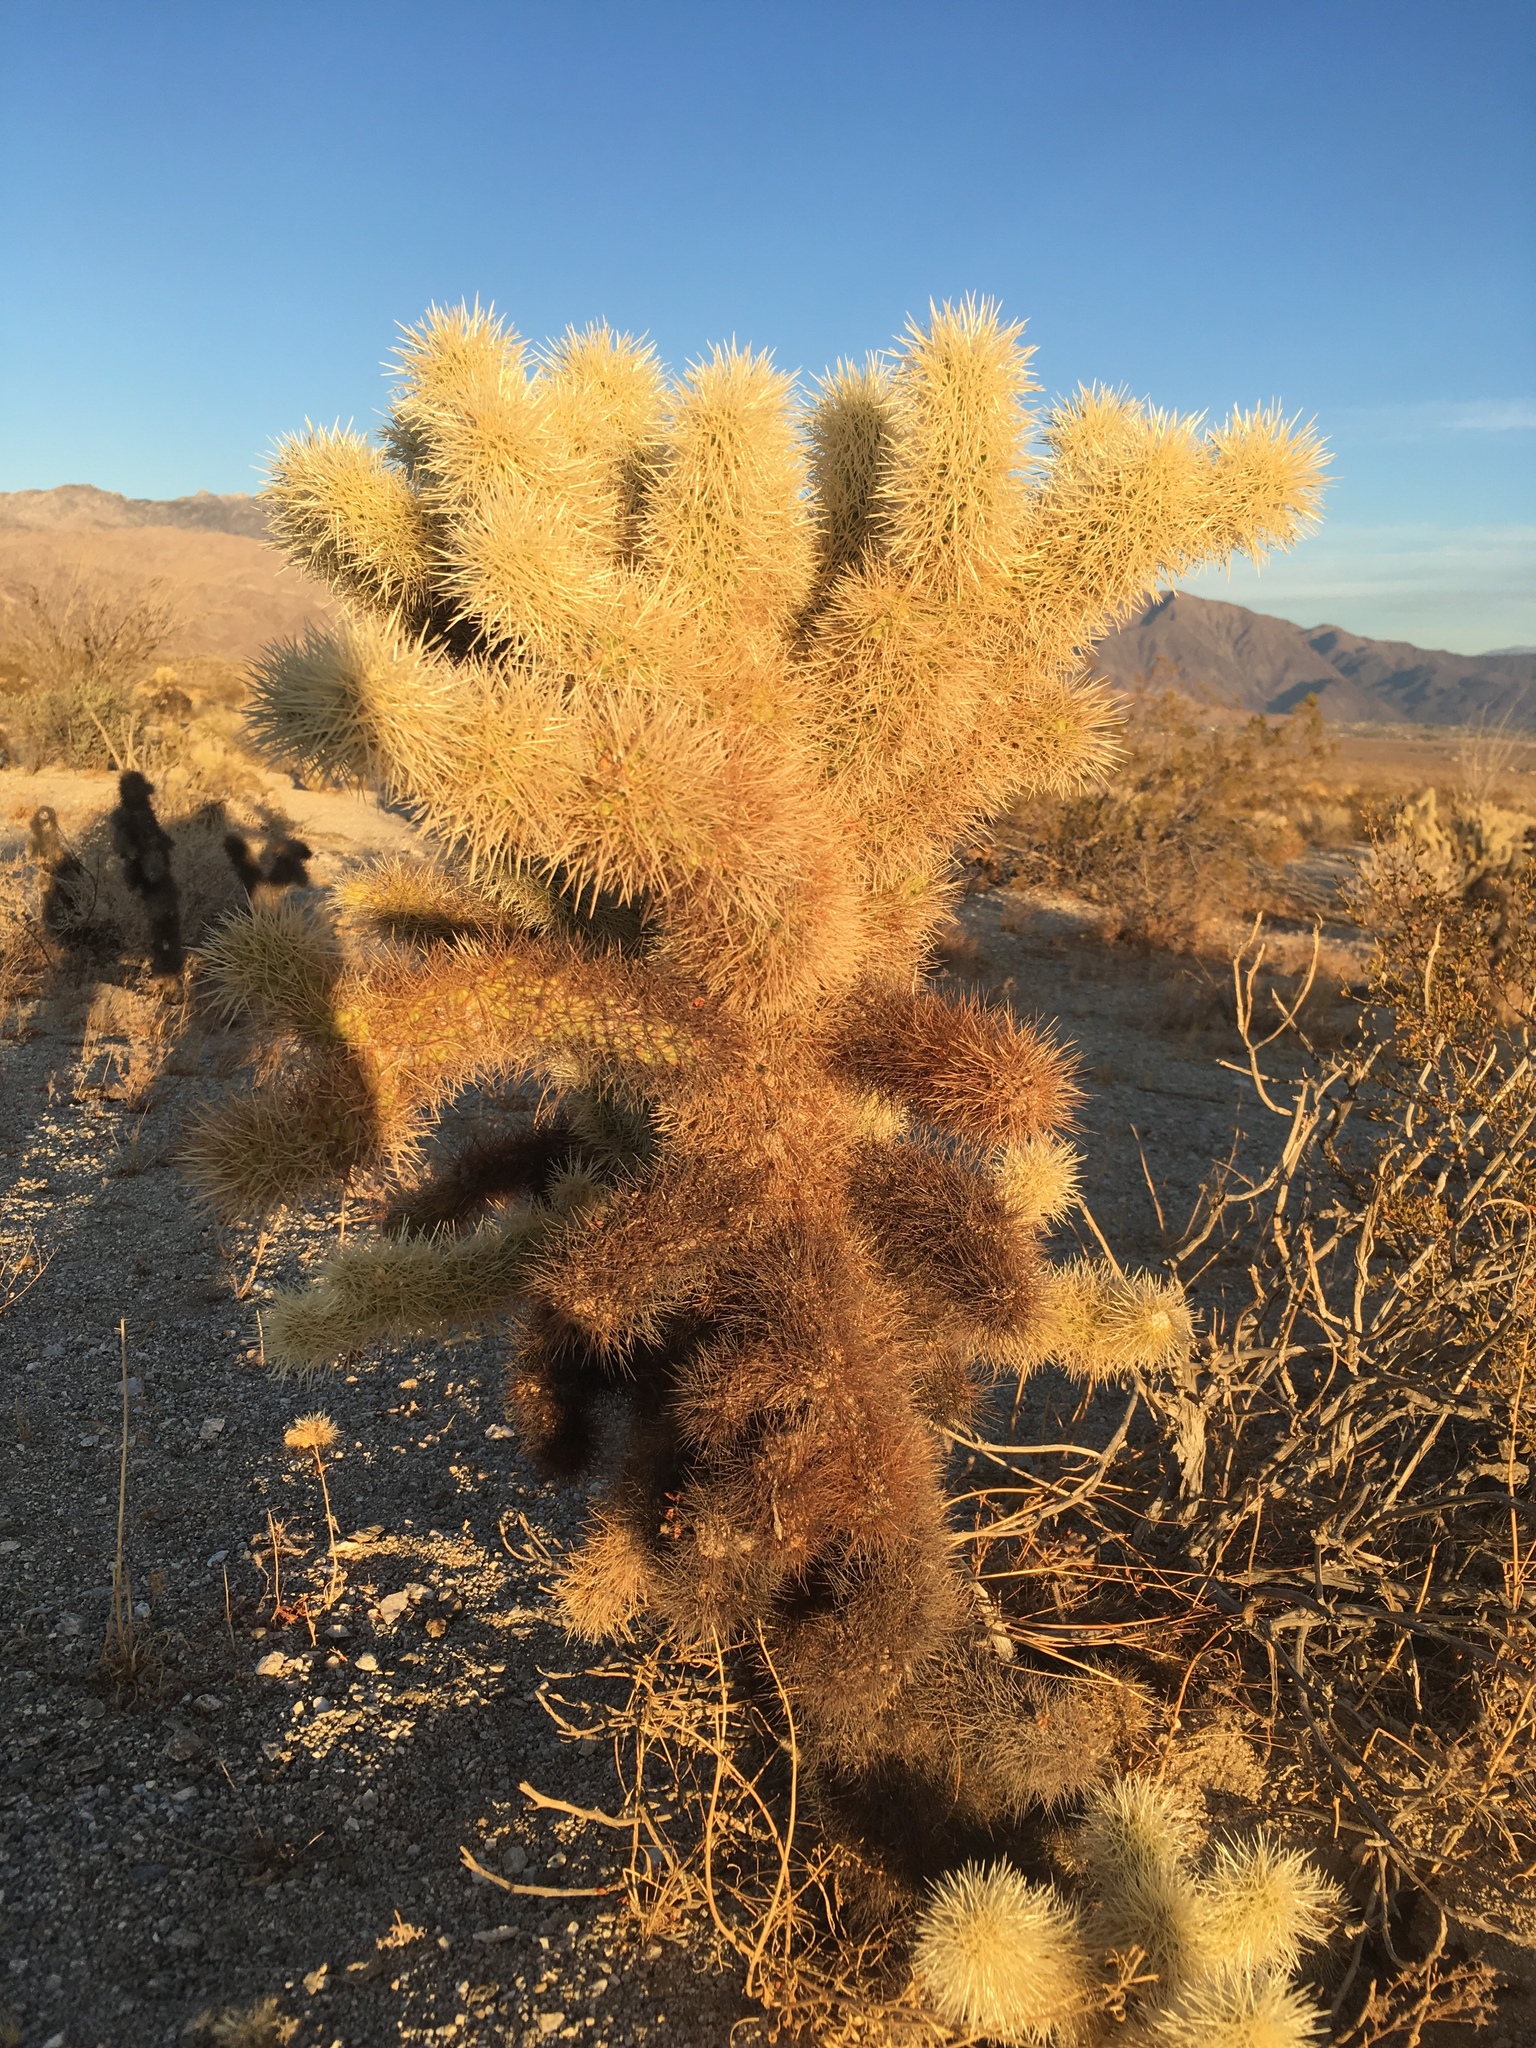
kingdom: Plantae
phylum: Tracheophyta
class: Magnoliopsida
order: Caryophyllales
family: Cactaceae
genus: Cylindropuntia
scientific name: Cylindropuntia fosbergii
